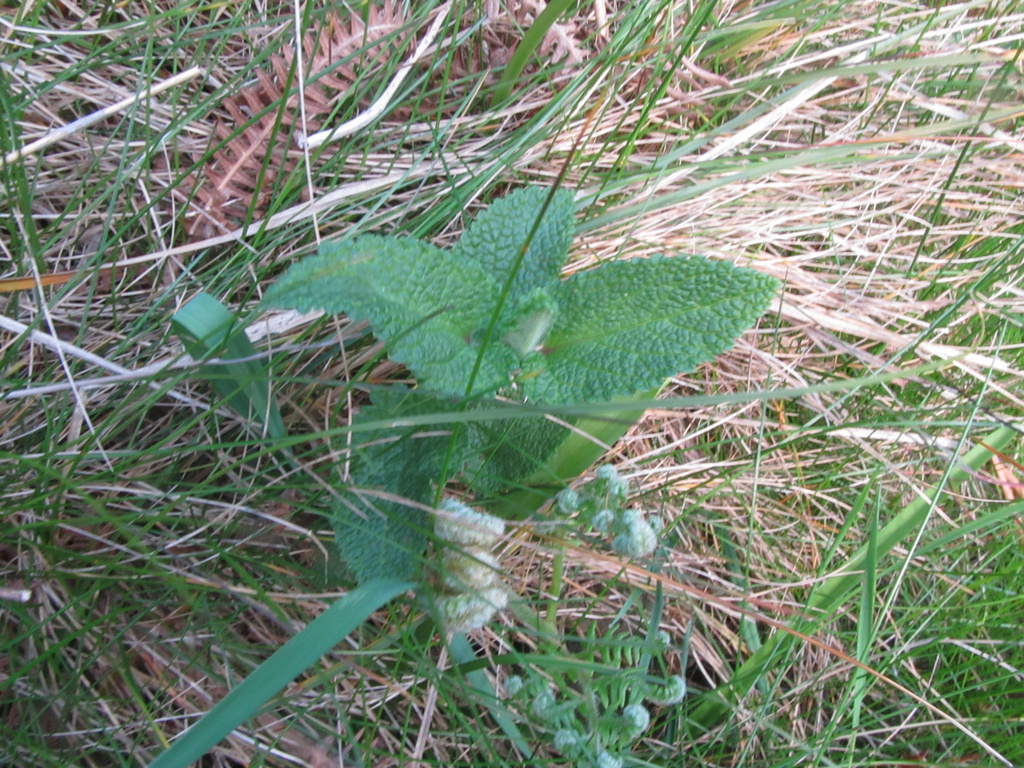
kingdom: Plantae
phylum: Tracheophyta
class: Magnoliopsida
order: Lamiales
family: Lamiaceae
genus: Teucrium
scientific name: Teucrium scorodonia
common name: Woodland germander
